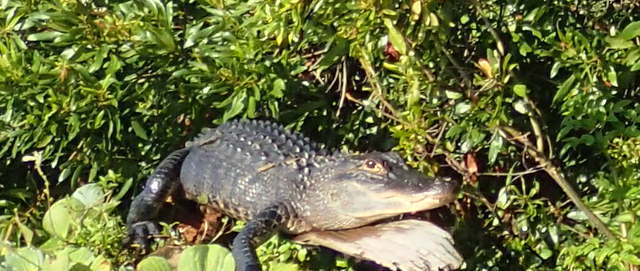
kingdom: Animalia
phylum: Chordata
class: Crocodylia
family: Alligatoridae
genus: Alligator
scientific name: Alligator mississippiensis
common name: American alligator
